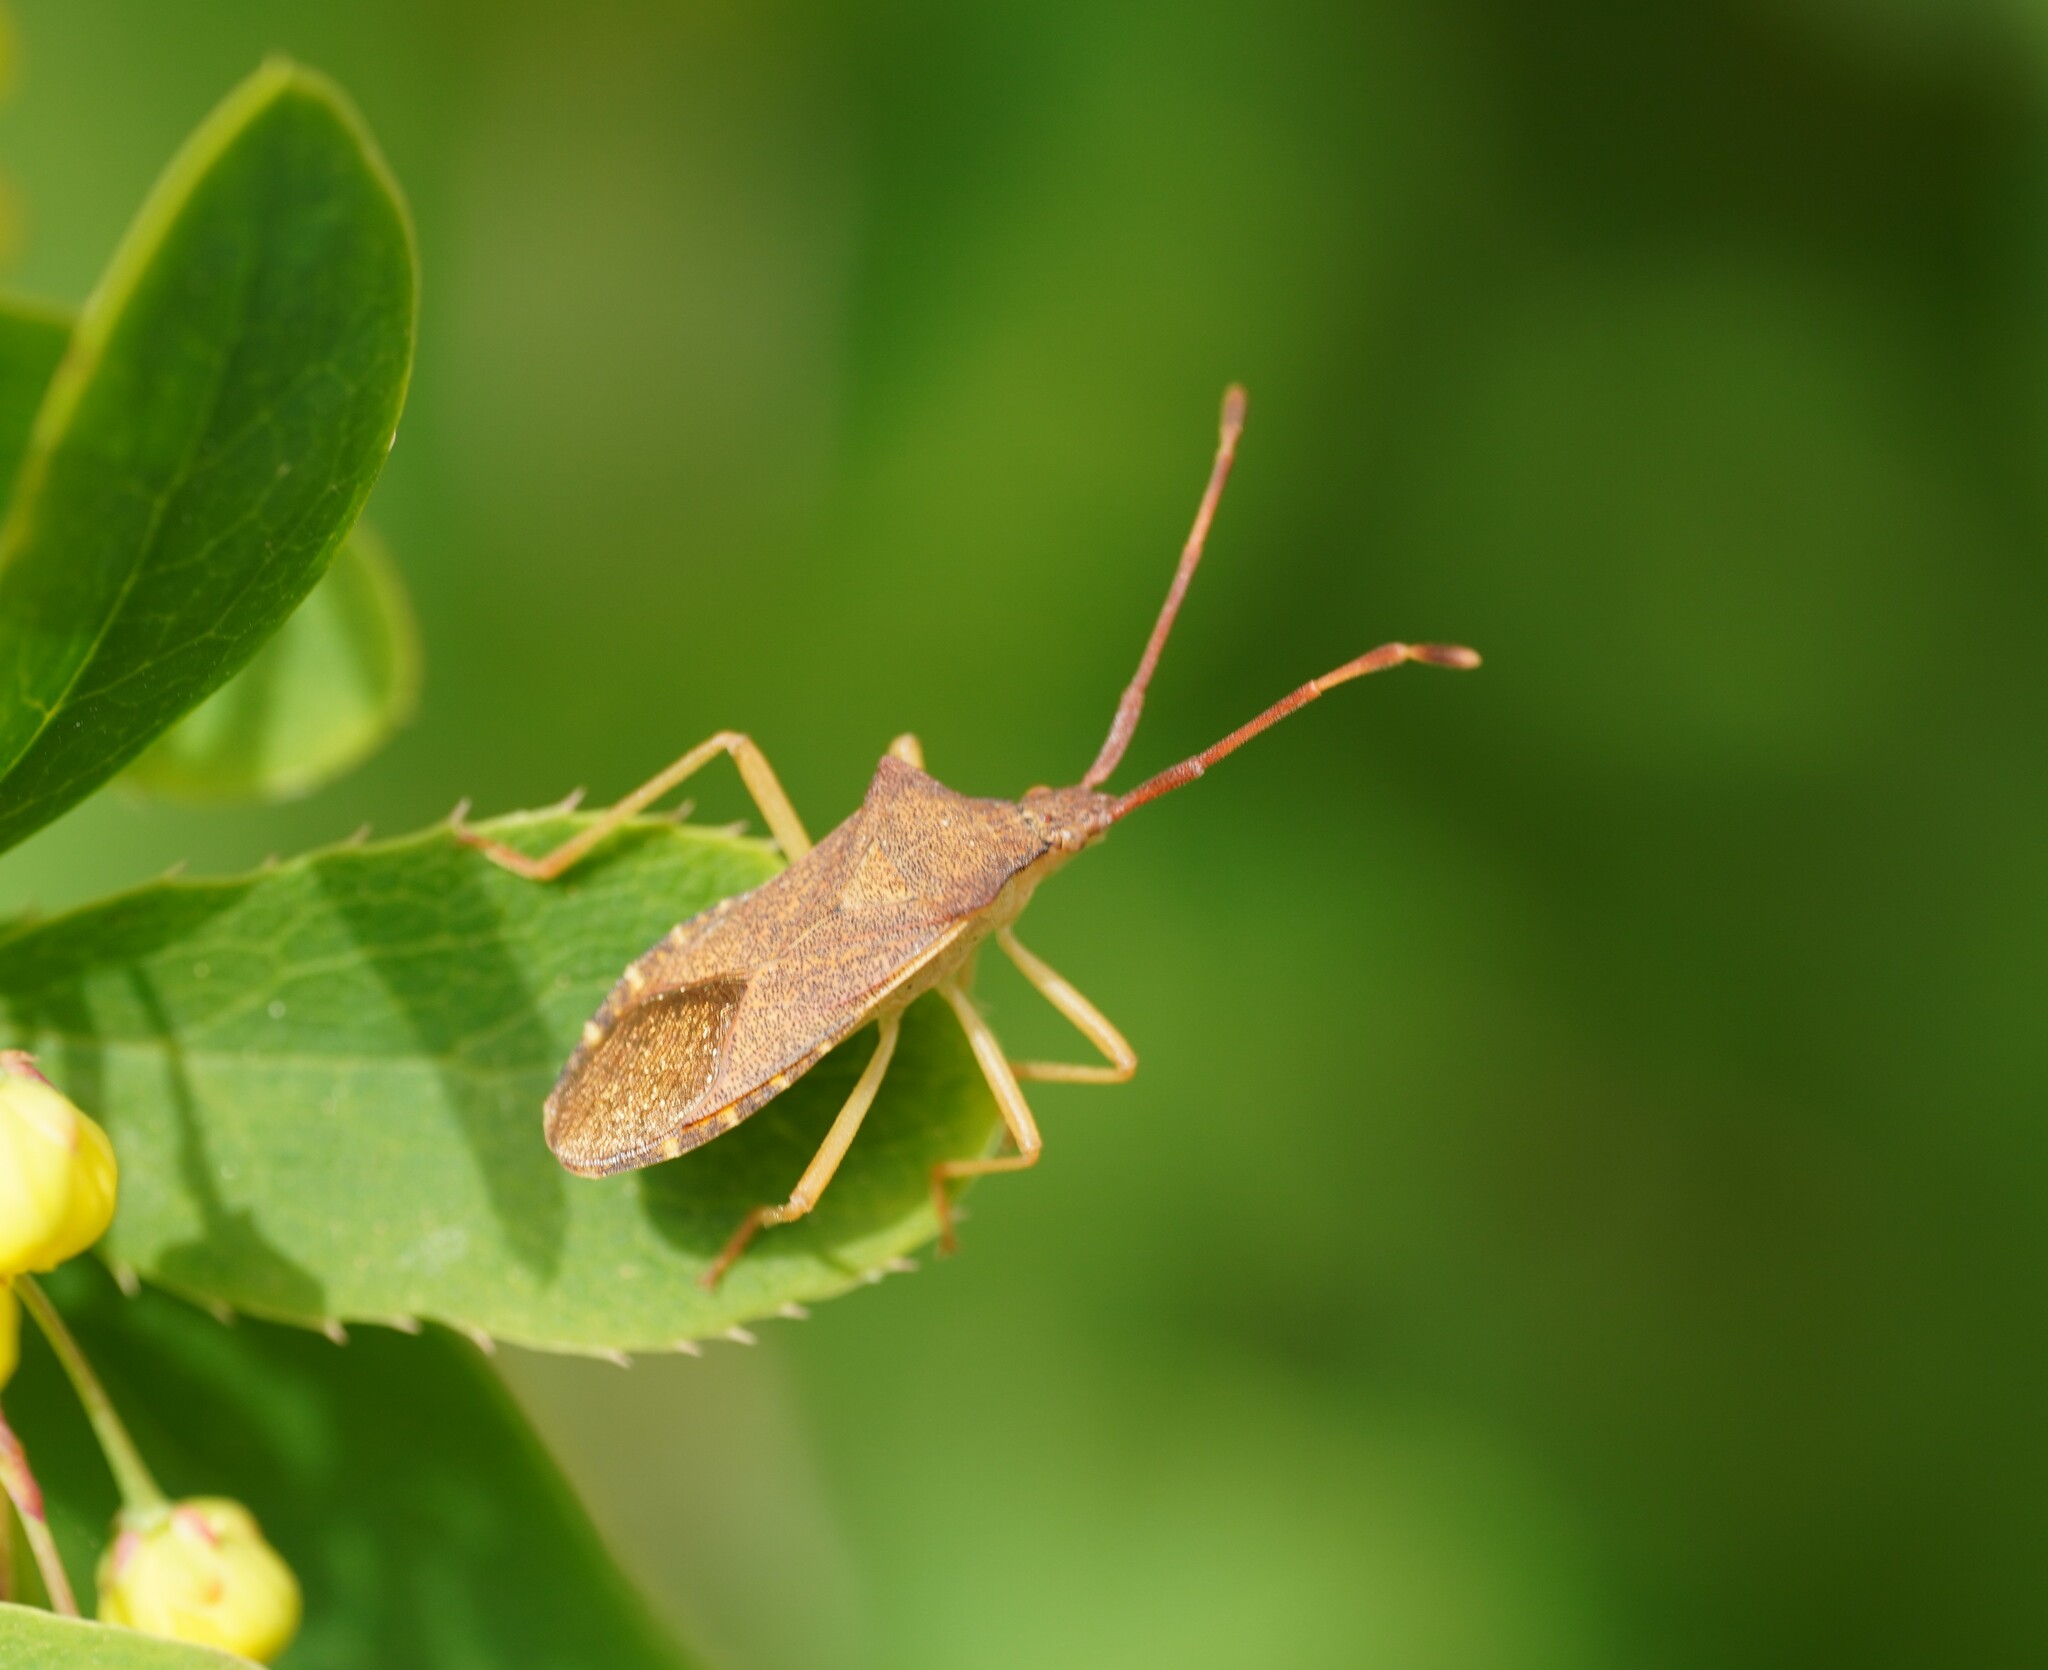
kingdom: Animalia
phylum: Arthropoda
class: Insecta
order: Hemiptera
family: Coreidae
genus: Gonocerus
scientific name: Gonocerus acuteangulatus
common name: Box bug
